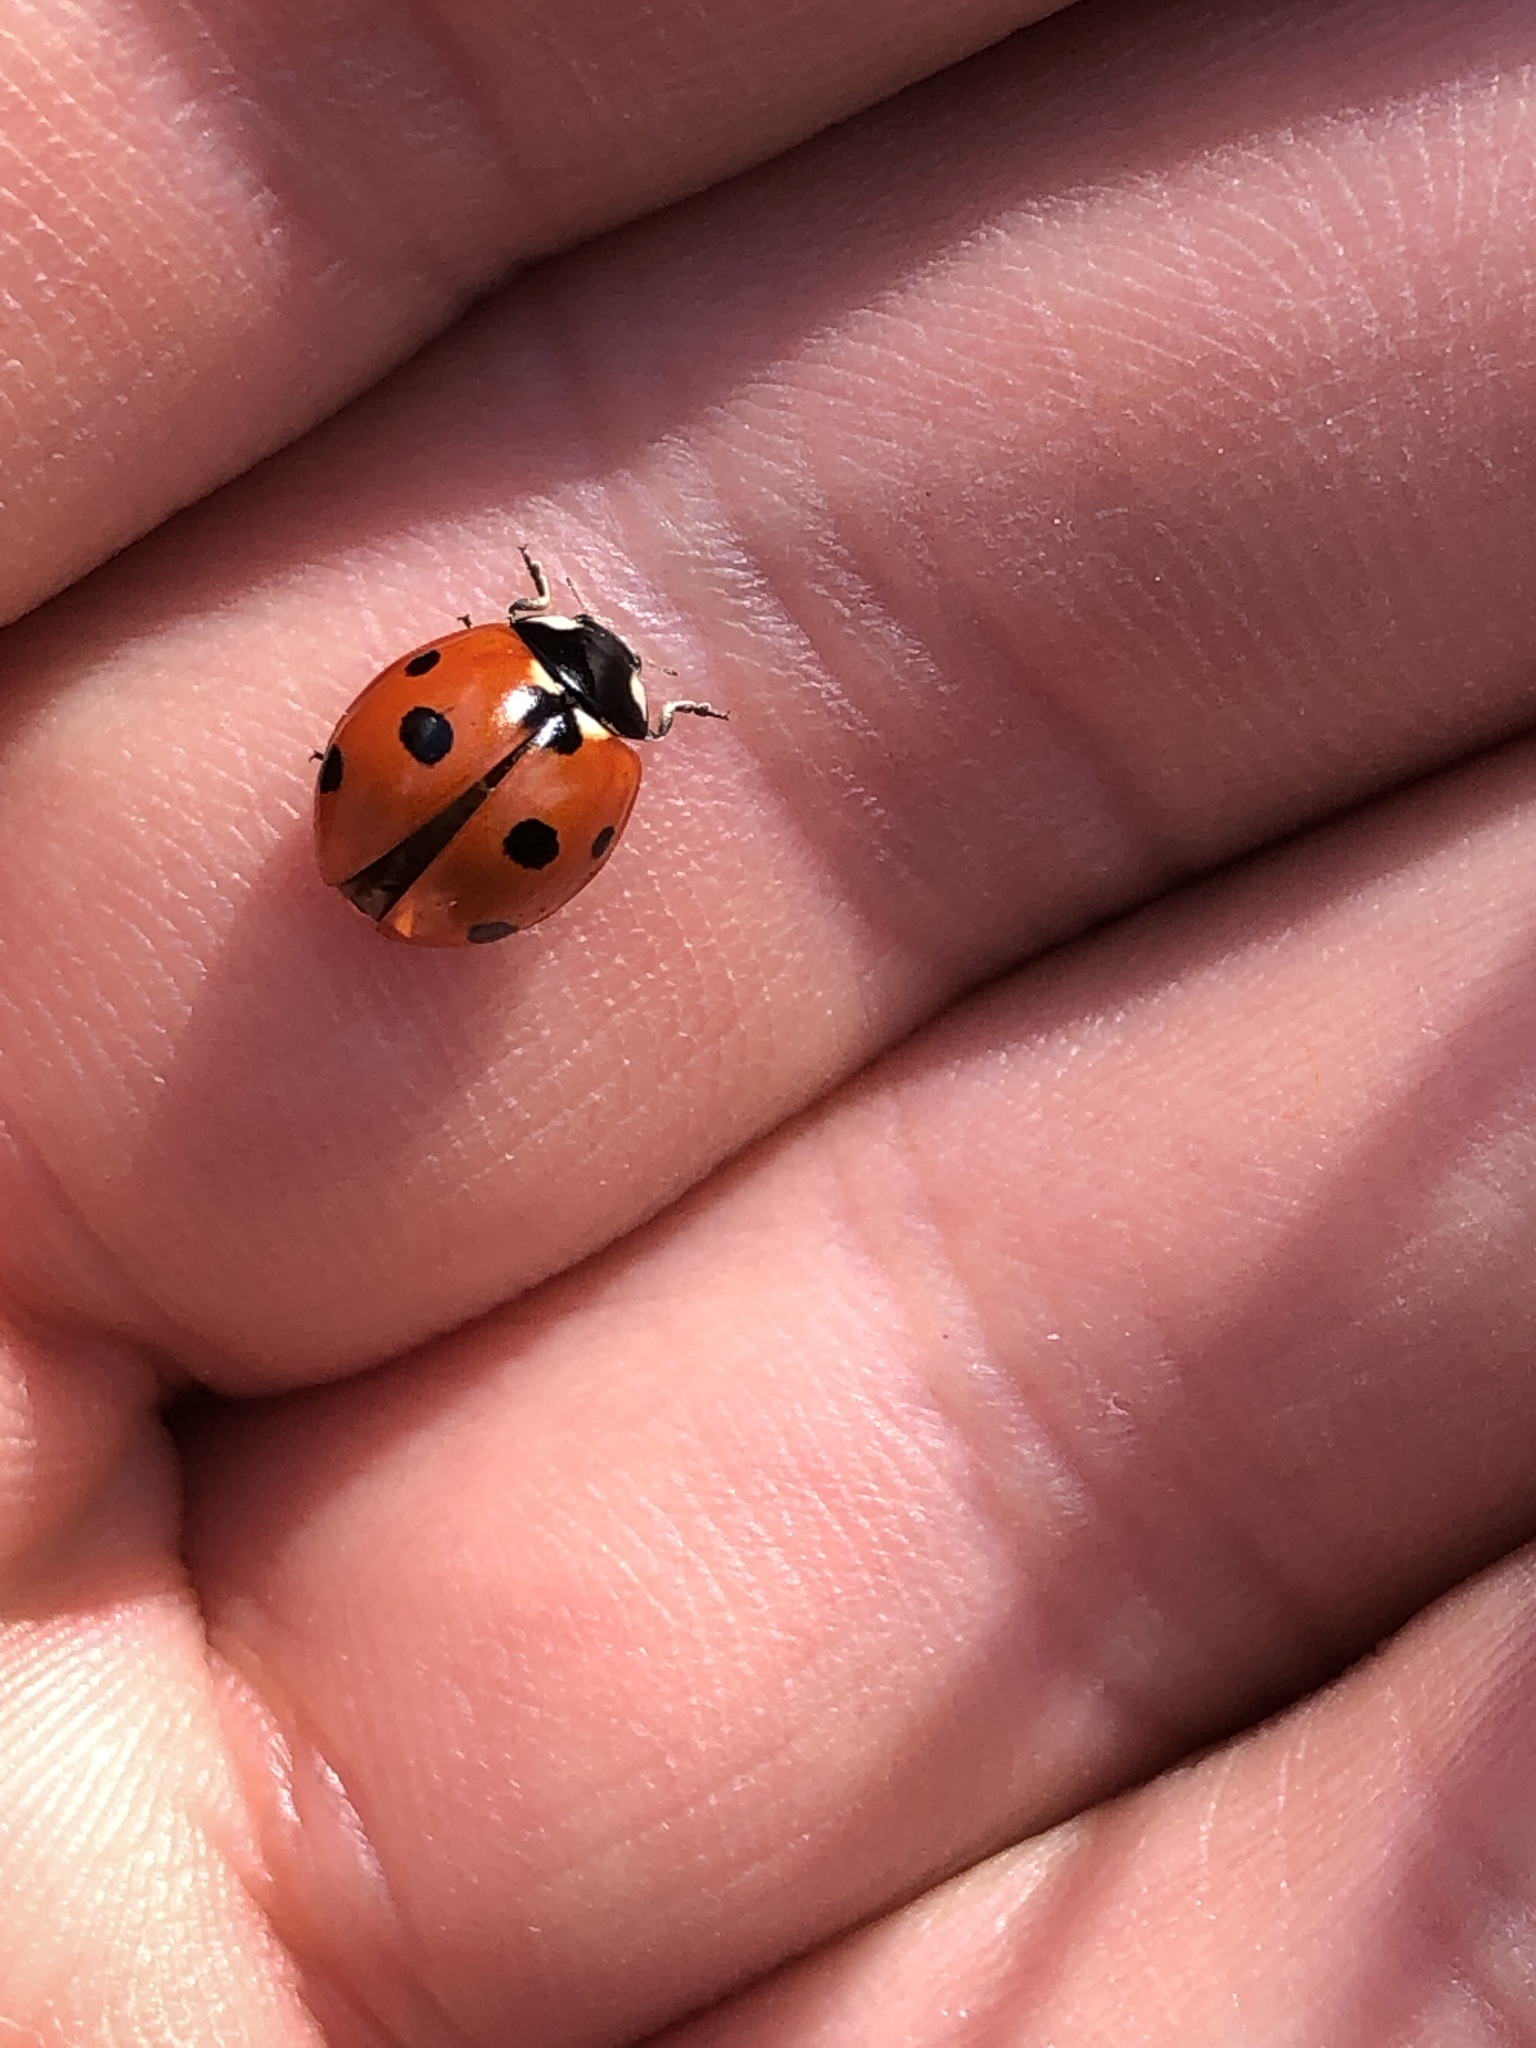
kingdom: Animalia
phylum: Arthropoda
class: Insecta
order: Coleoptera
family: Coccinellidae
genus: Coccinella
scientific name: Coccinella septempunctata
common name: Sevenspotted lady beetle
